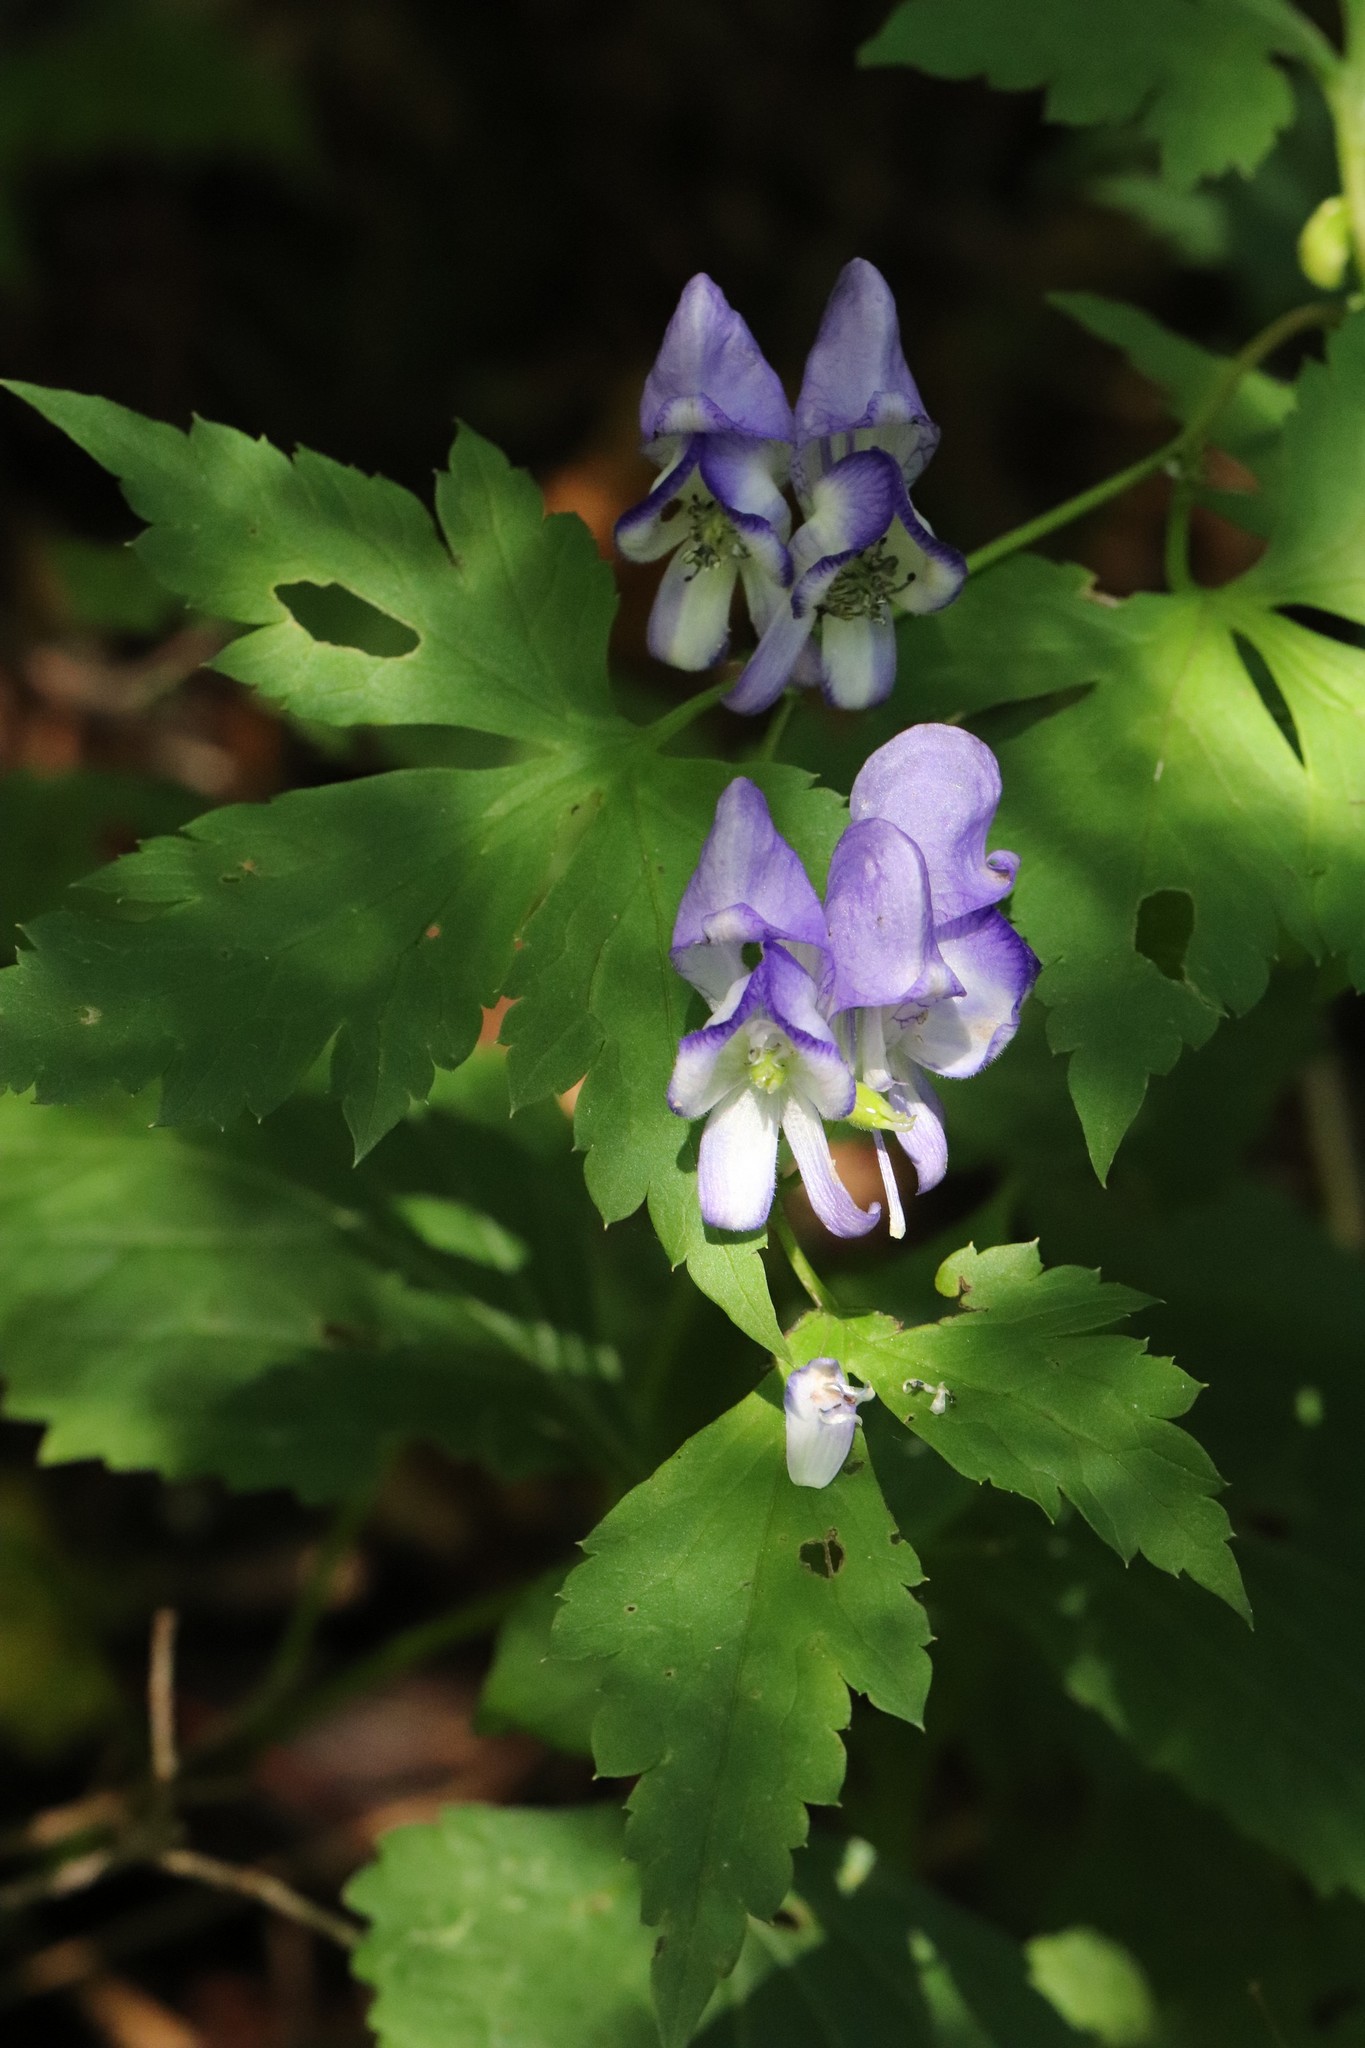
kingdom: Plantae
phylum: Tracheophyta
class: Magnoliopsida
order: Ranunculales
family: Ranunculaceae
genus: Aconitum
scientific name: Aconitum sczukinii
